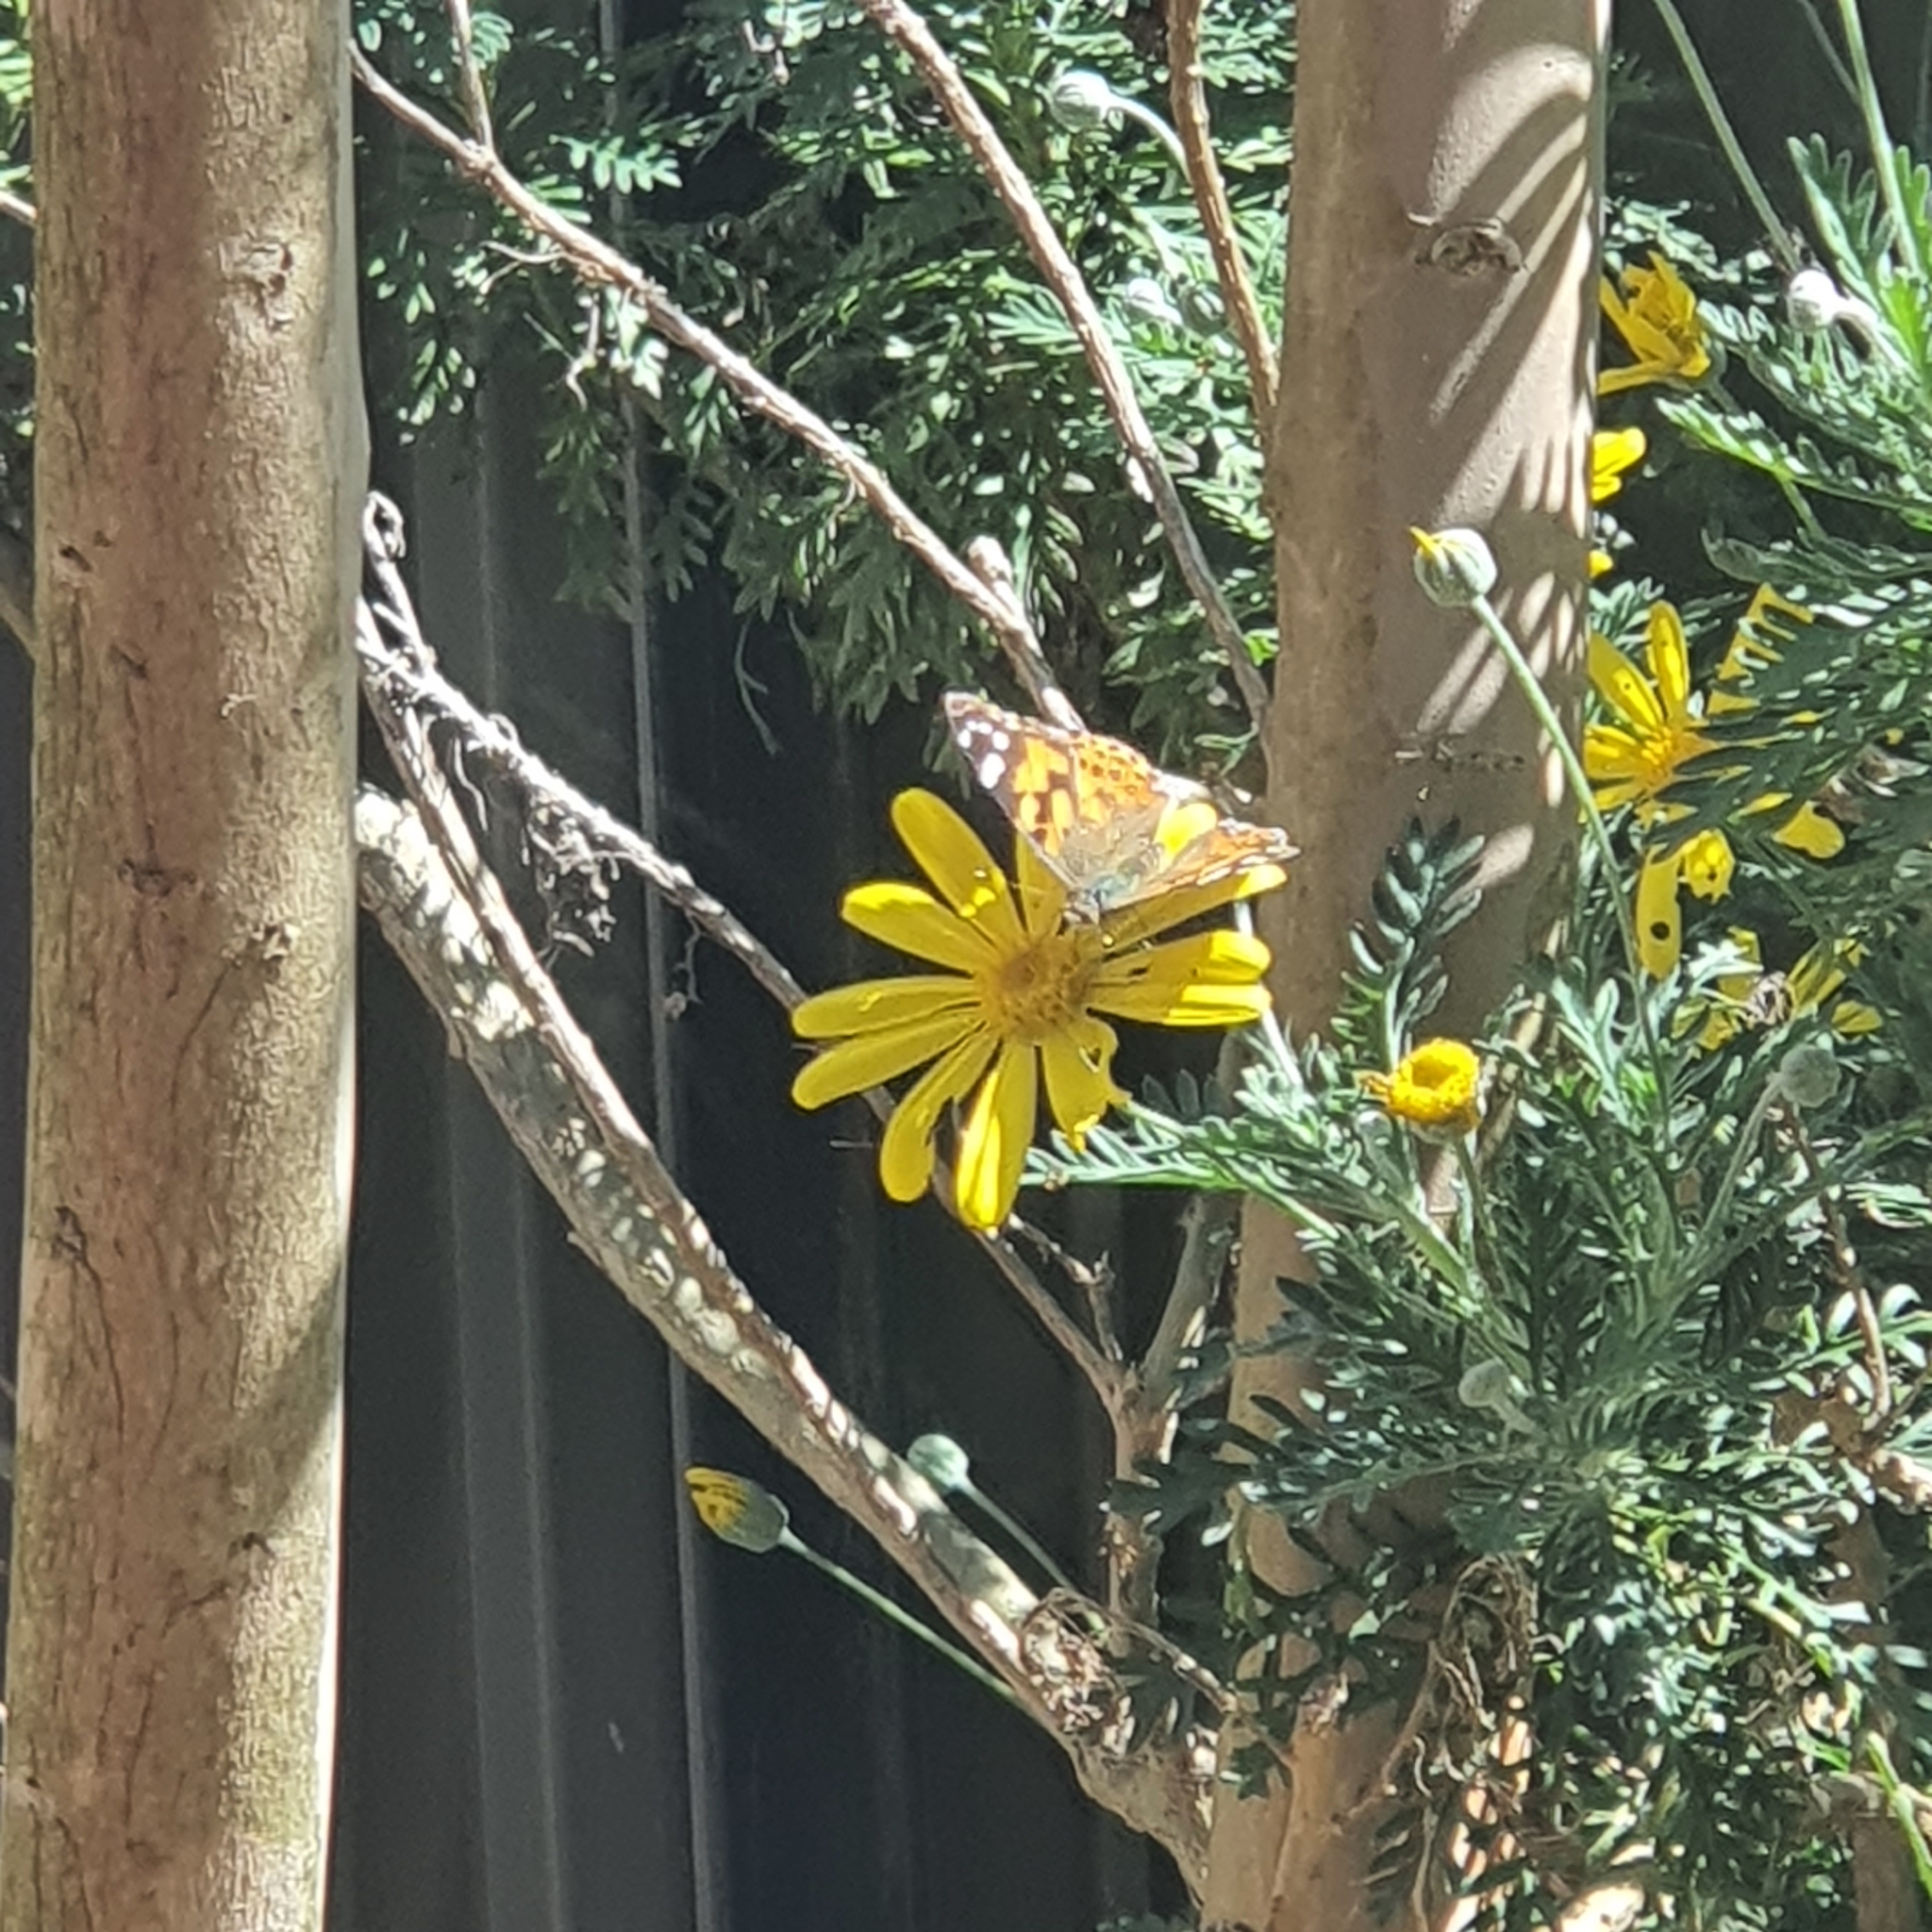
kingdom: Animalia
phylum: Arthropoda
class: Insecta
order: Lepidoptera
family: Nymphalidae
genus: Vanessa
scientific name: Vanessa kershawi
